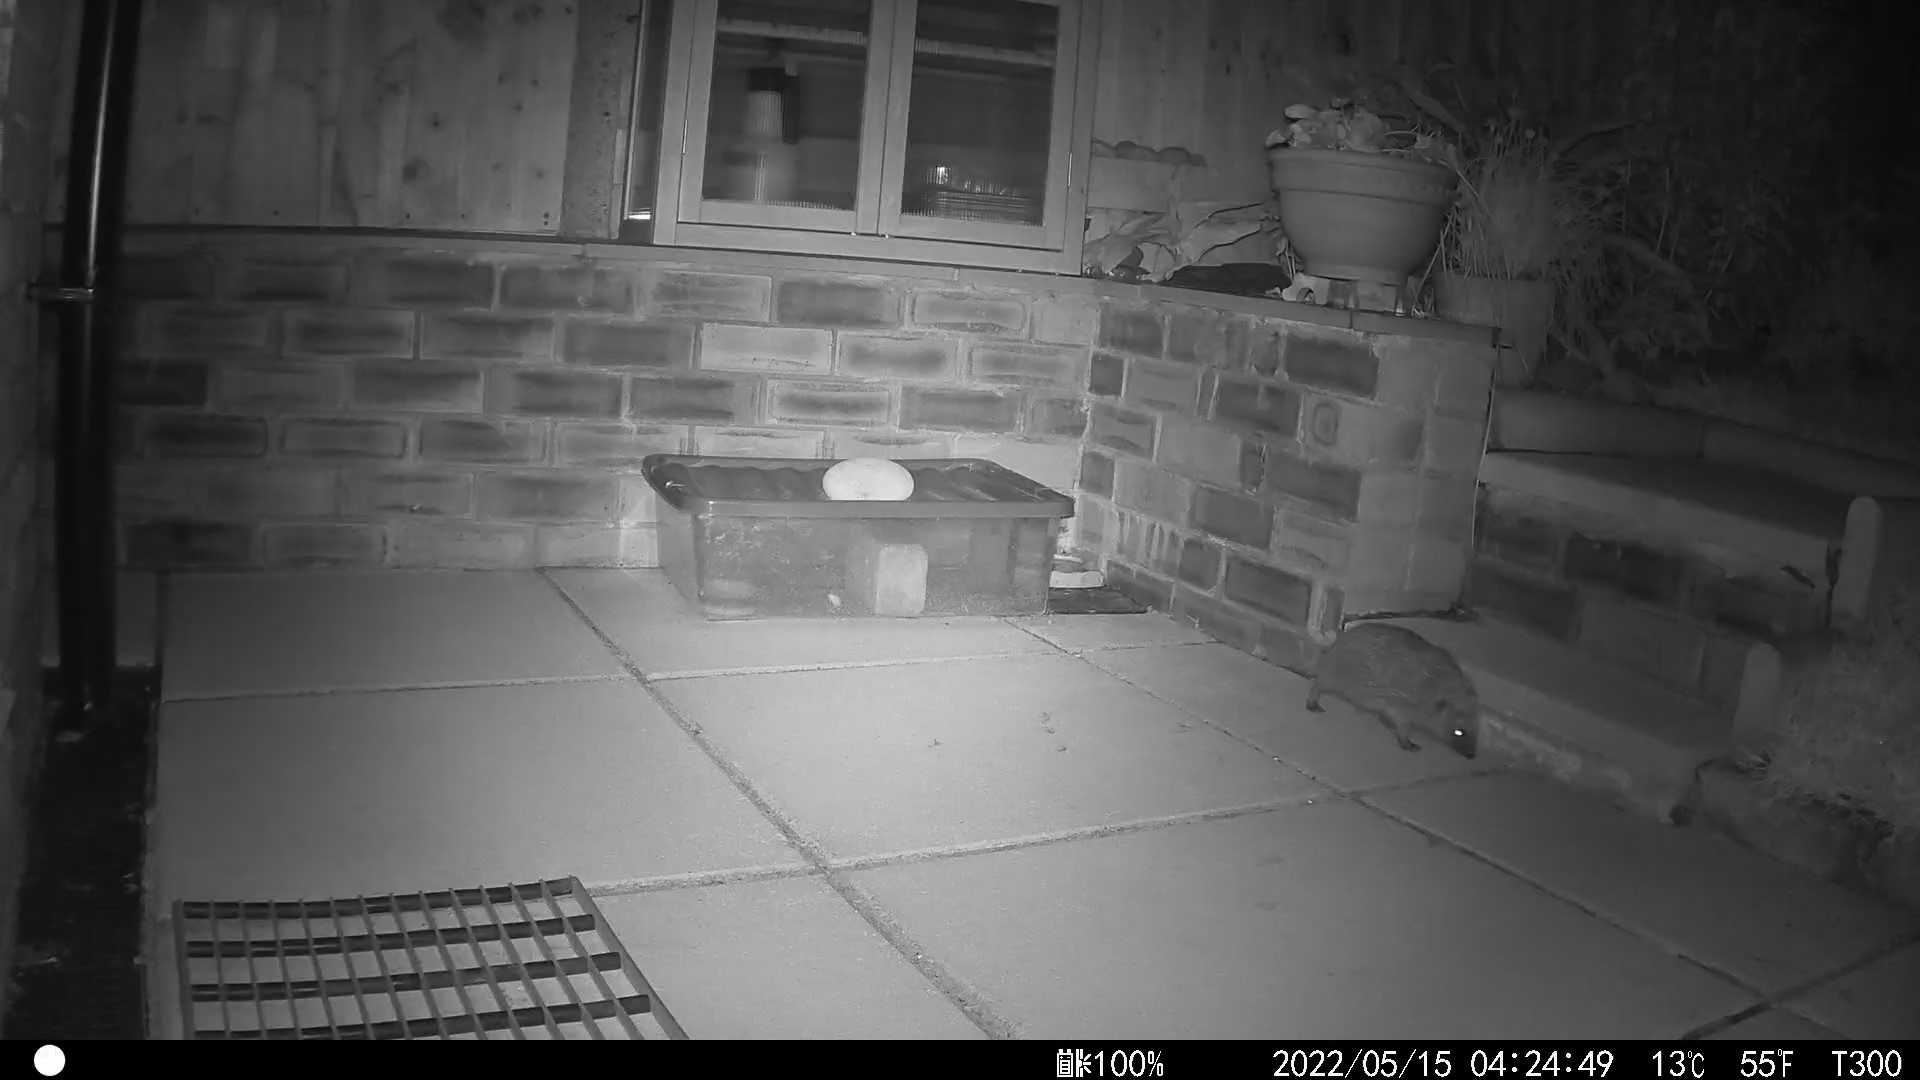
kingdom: Animalia
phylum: Chordata
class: Mammalia
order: Erinaceomorpha
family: Erinaceidae
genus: Erinaceus
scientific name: Erinaceus europaeus
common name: West european hedgehog
